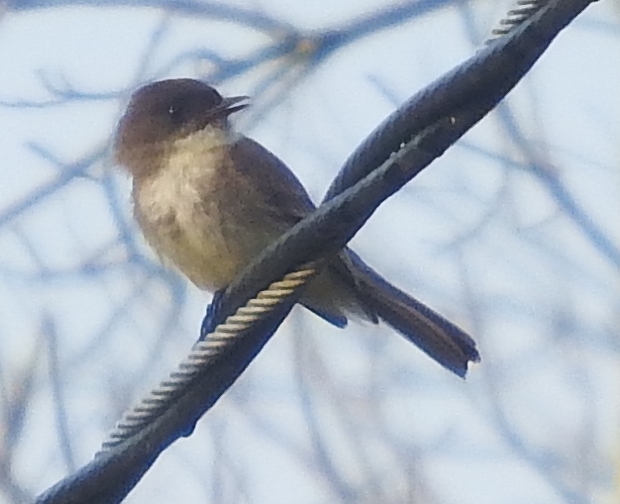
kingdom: Animalia
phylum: Chordata
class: Aves
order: Passeriformes
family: Tyrannidae
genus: Sayornis
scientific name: Sayornis phoebe
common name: Eastern phoebe
